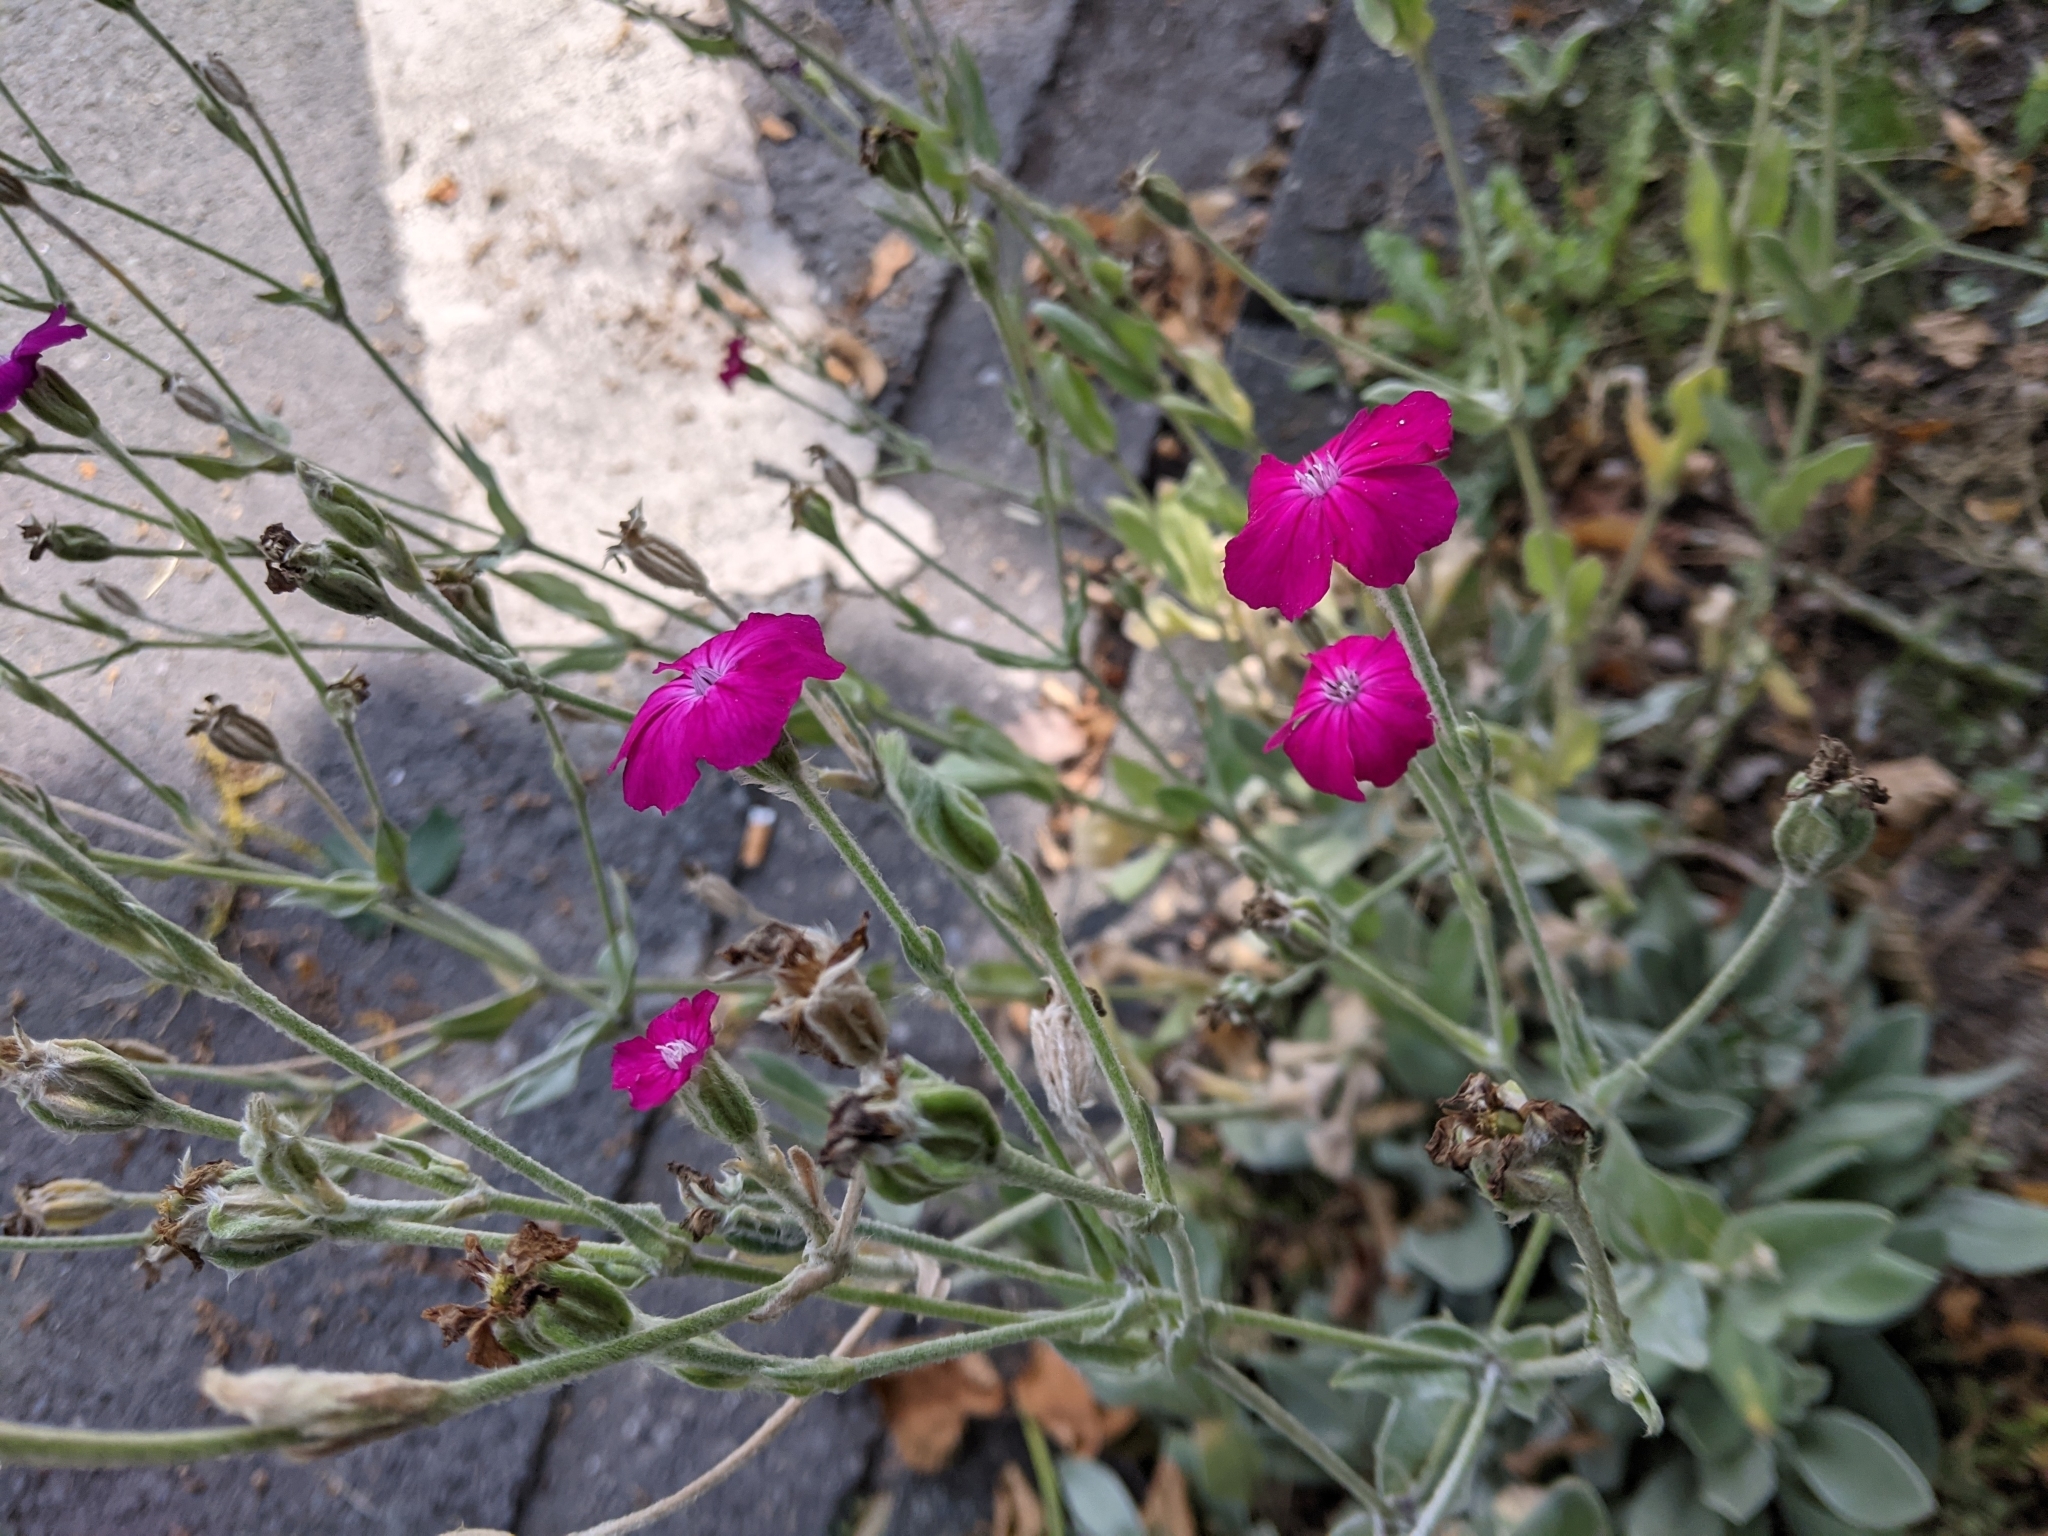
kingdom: Plantae
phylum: Tracheophyta
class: Magnoliopsida
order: Caryophyllales
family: Caryophyllaceae
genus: Silene
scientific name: Silene coronaria
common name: Rose campion
